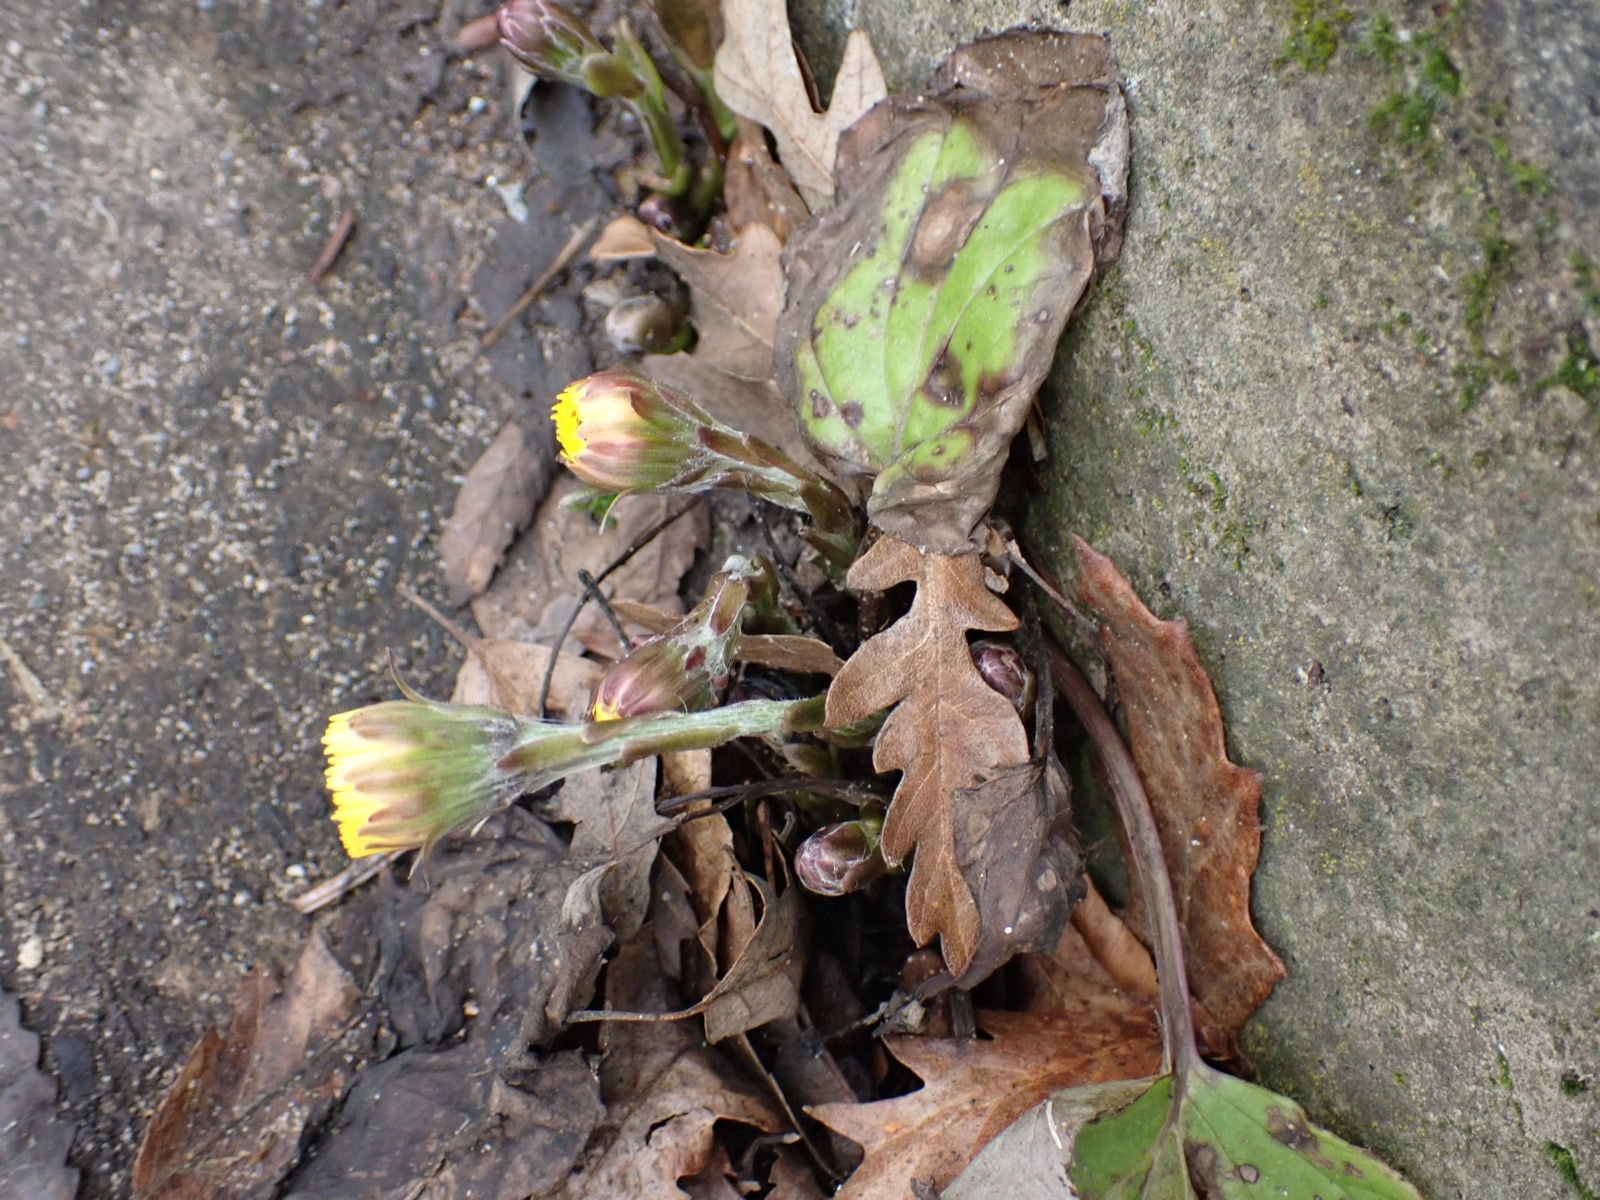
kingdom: Plantae
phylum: Tracheophyta
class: Magnoliopsida
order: Asterales
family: Asteraceae
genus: Tussilago
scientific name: Tussilago farfara
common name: Coltsfoot
